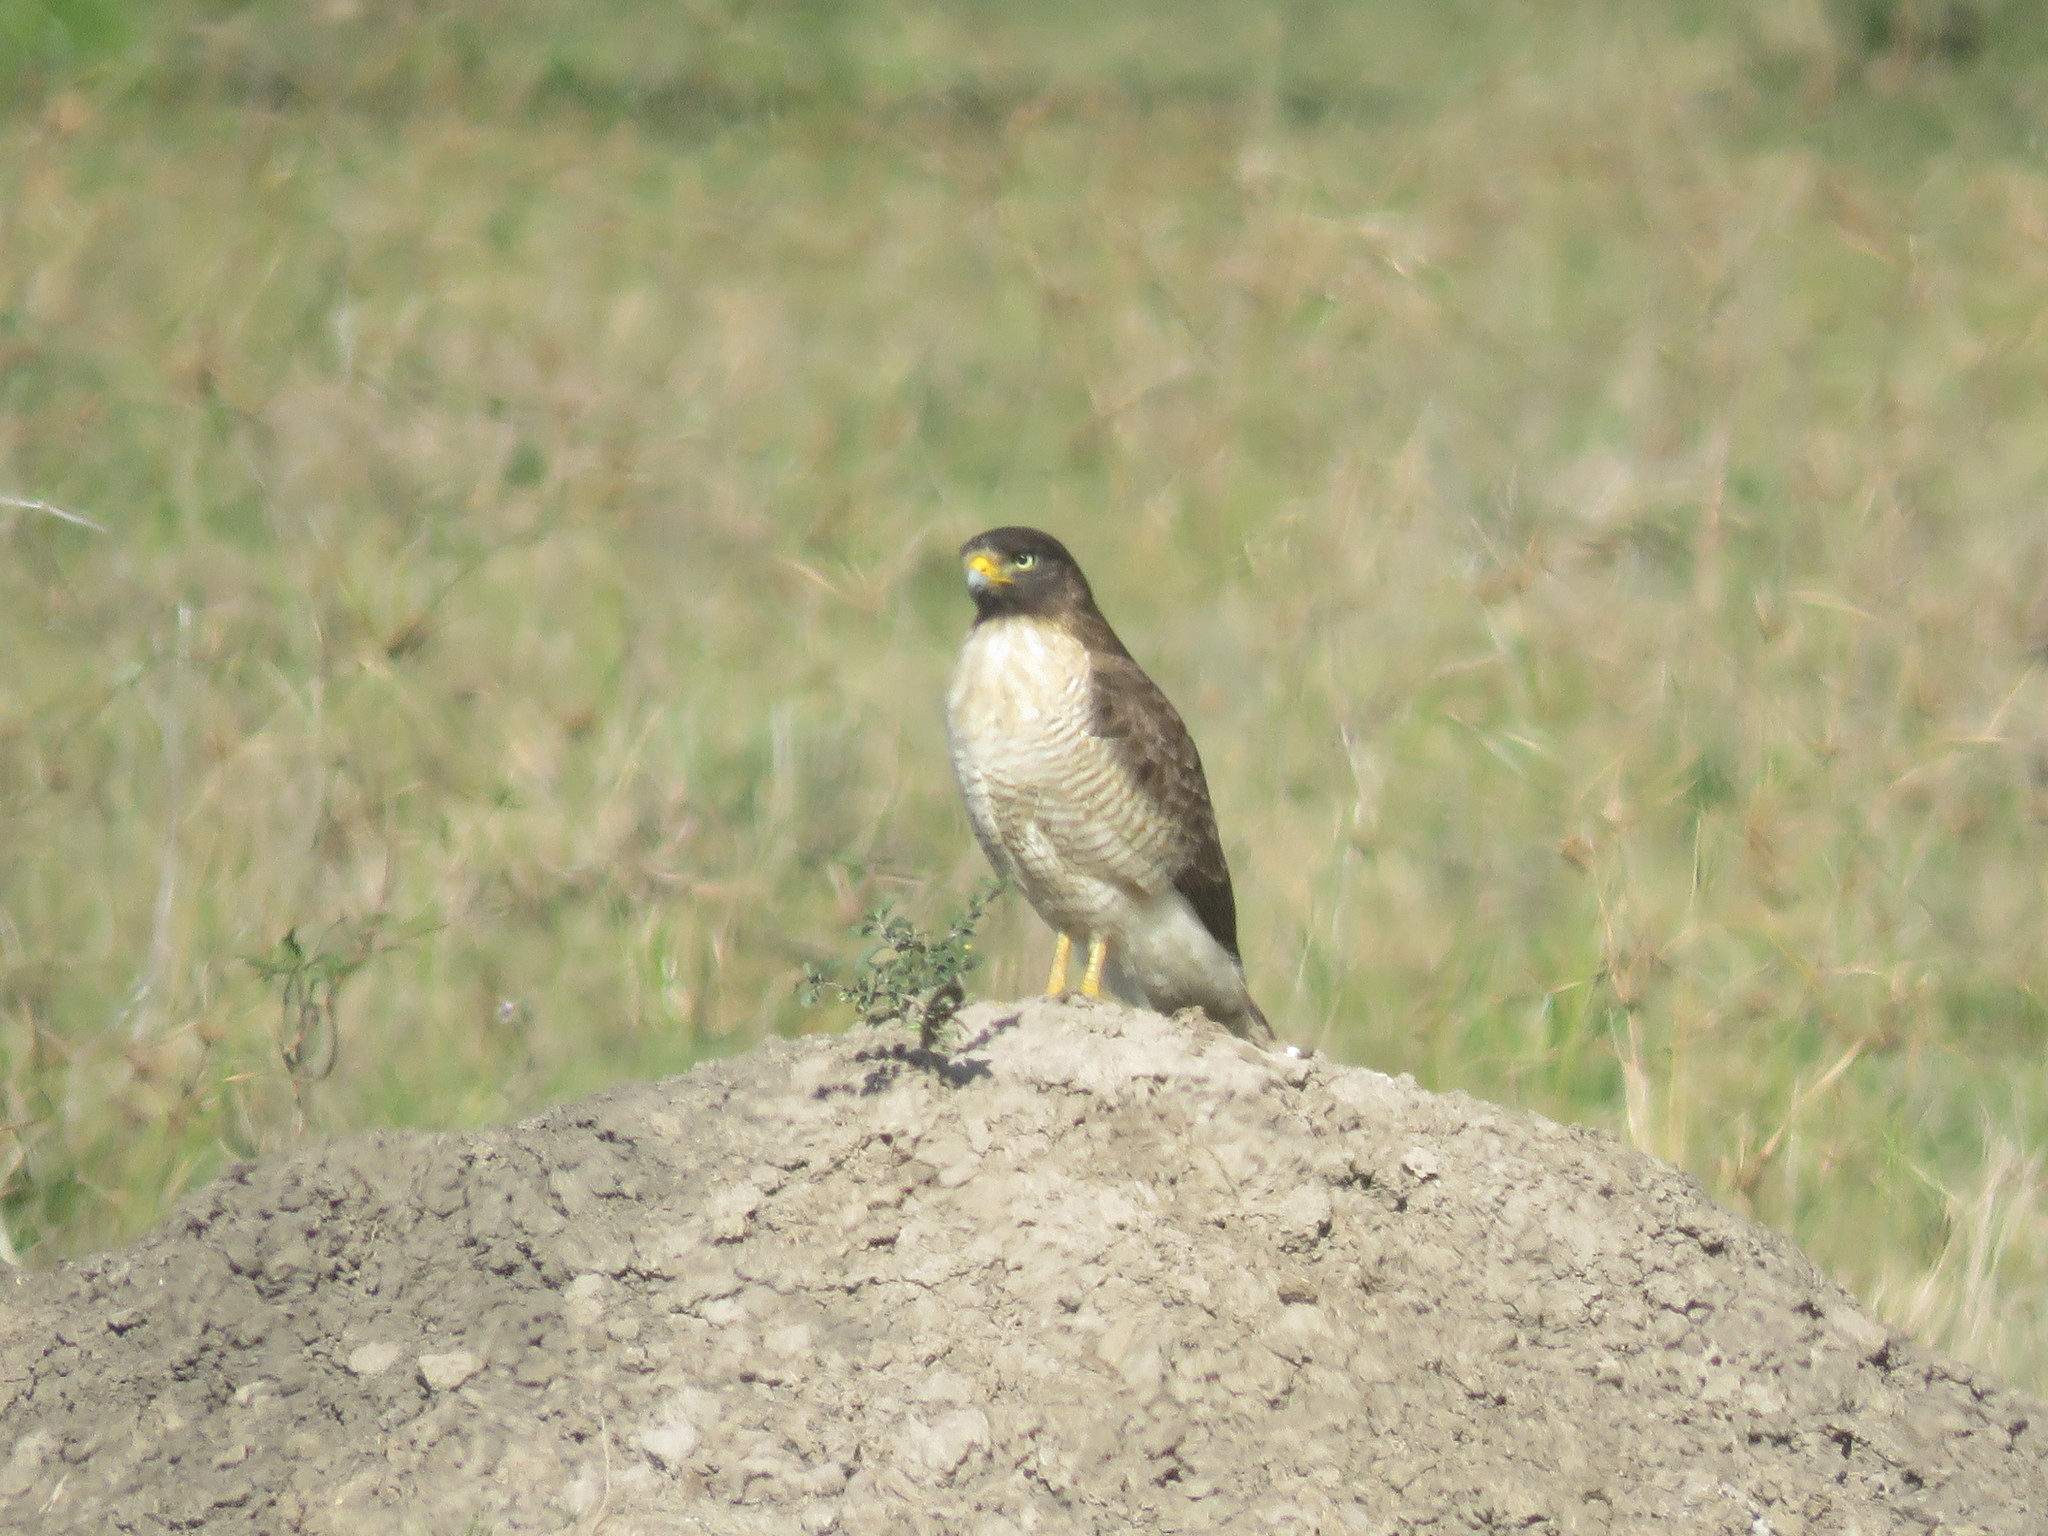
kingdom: Animalia
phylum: Chordata
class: Aves
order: Accipitriformes
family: Accipitridae
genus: Rupornis
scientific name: Rupornis magnirostris
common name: Roadside hawk
